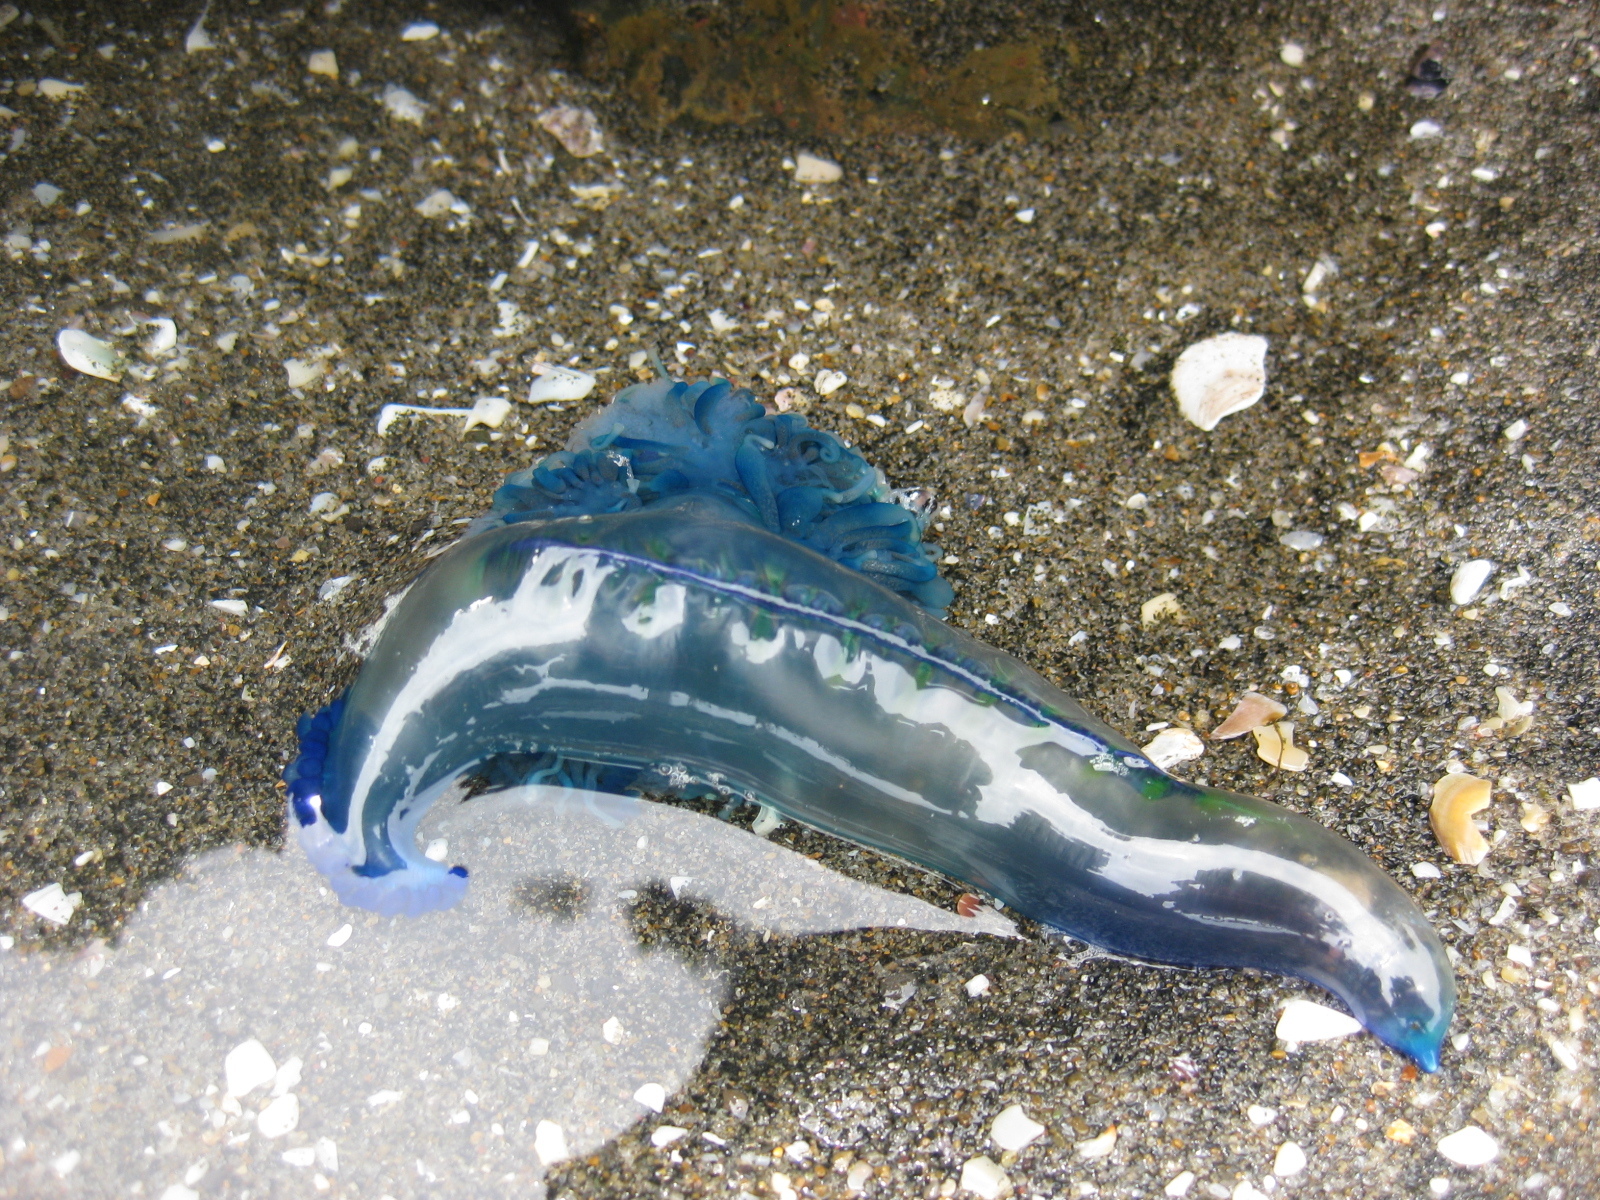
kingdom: Animalia
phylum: Cnidaria
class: Hydrozoa
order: Siphonophorae
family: Physaliidae
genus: Physalia
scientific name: Physalia physalis
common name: Portuguese man-of-war
